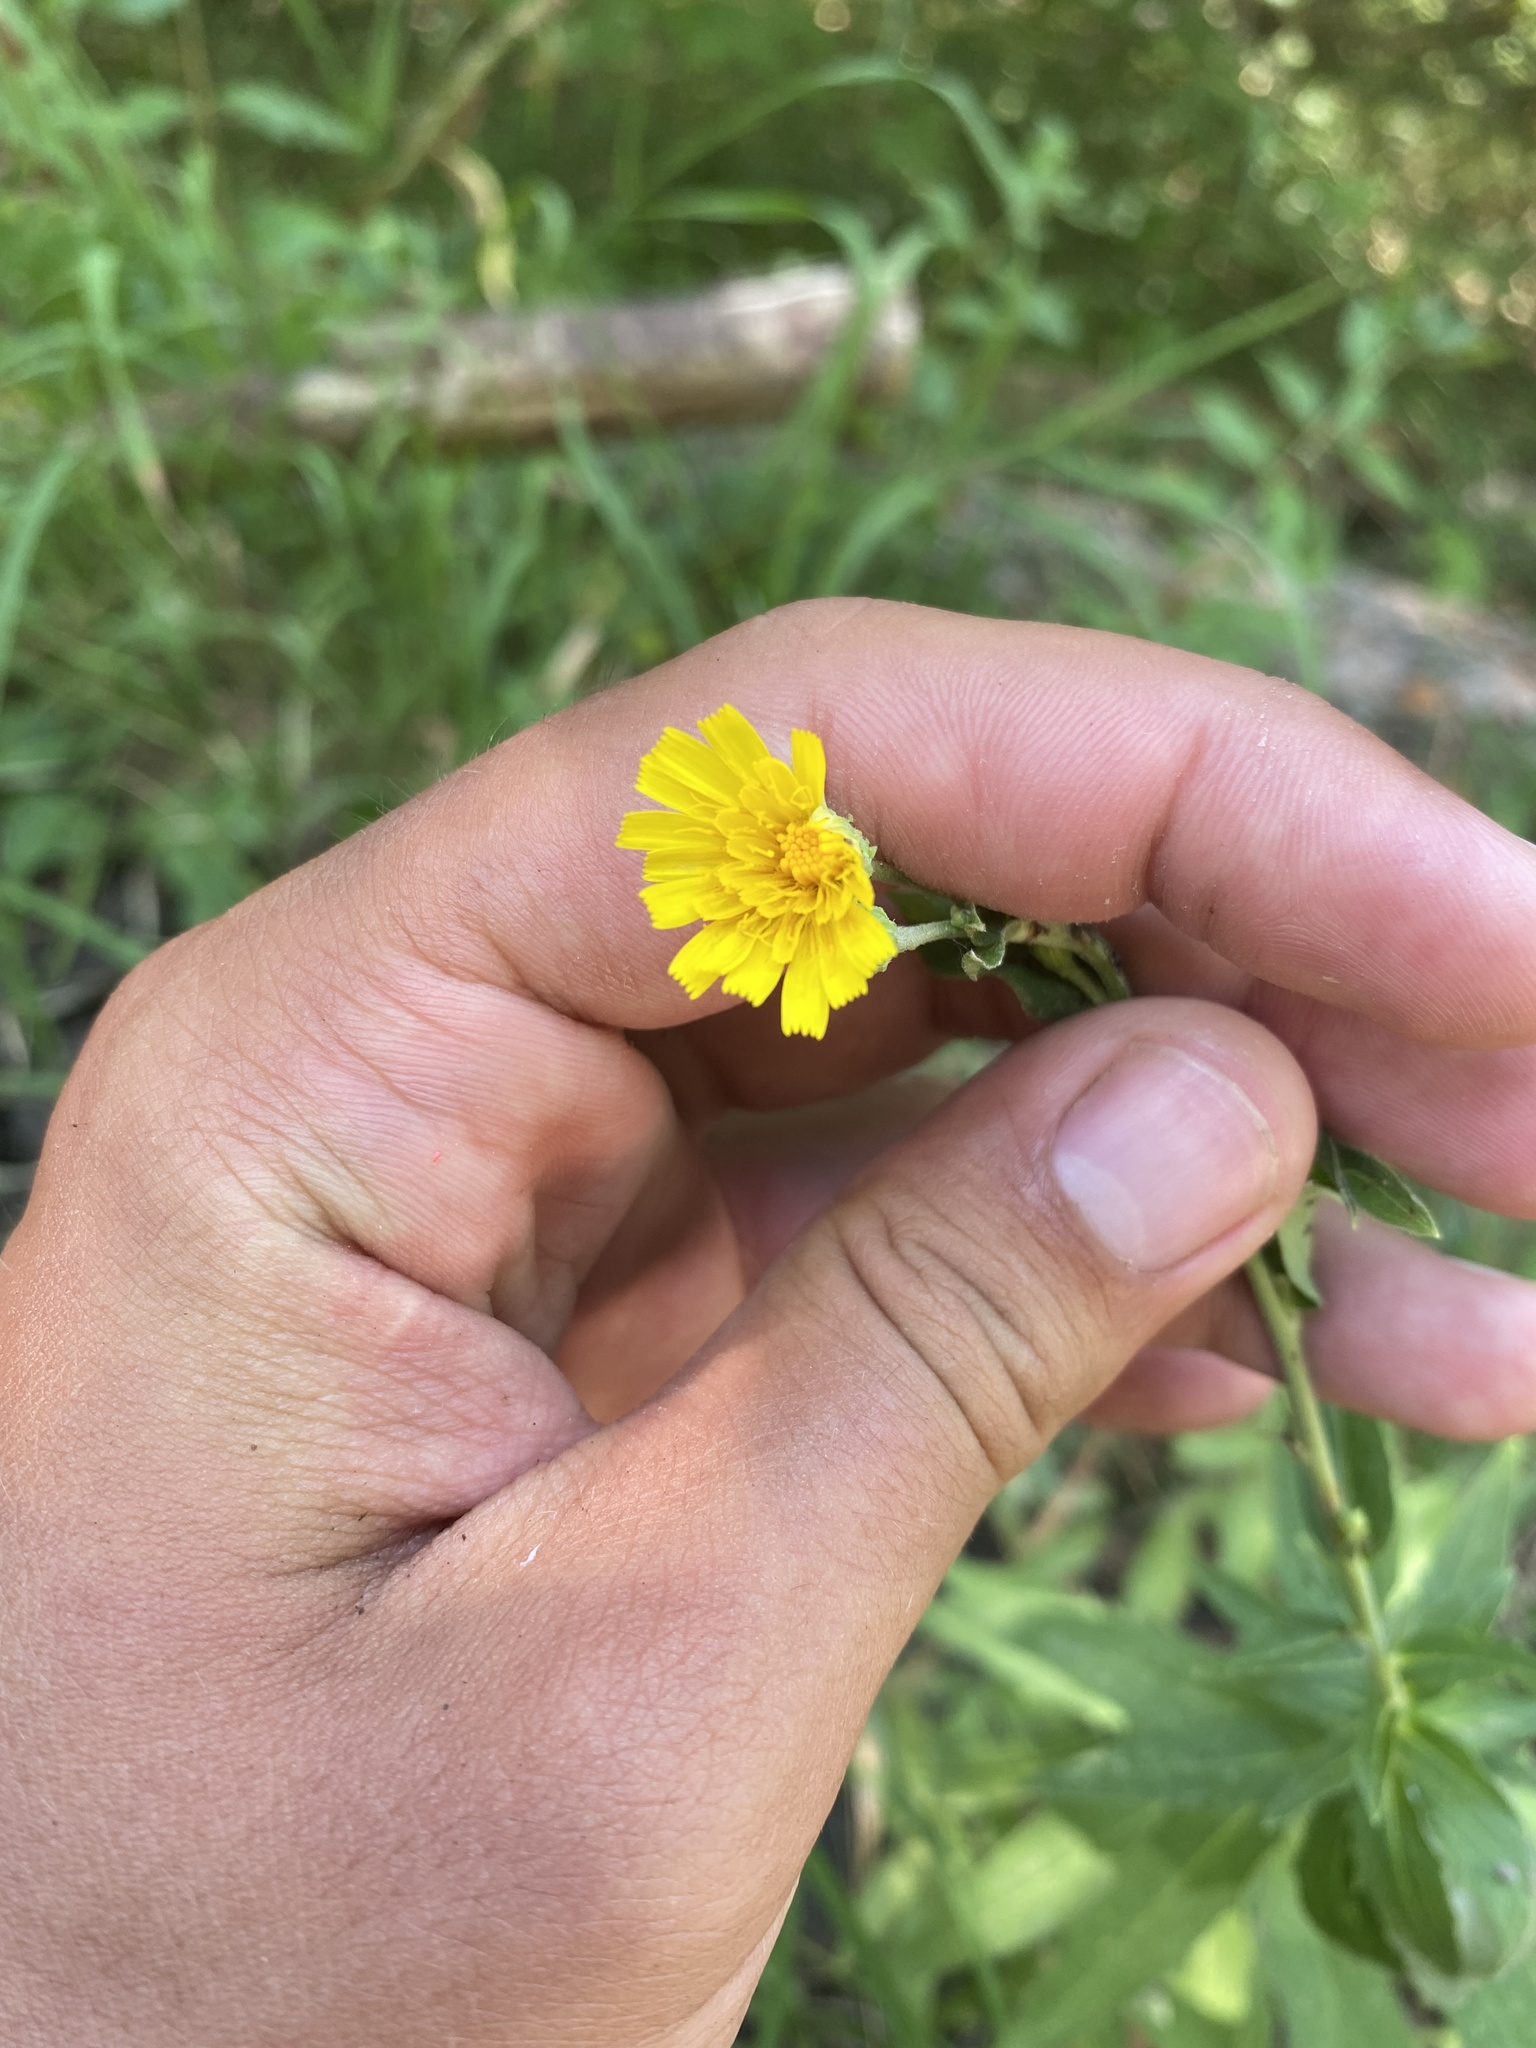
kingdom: Plantae
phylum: Tracheophyta
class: Magnoliopsida
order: Asterales
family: Asteraceae
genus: Hieracium
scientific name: Hieracium umbellatum
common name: Northern hawkweed
